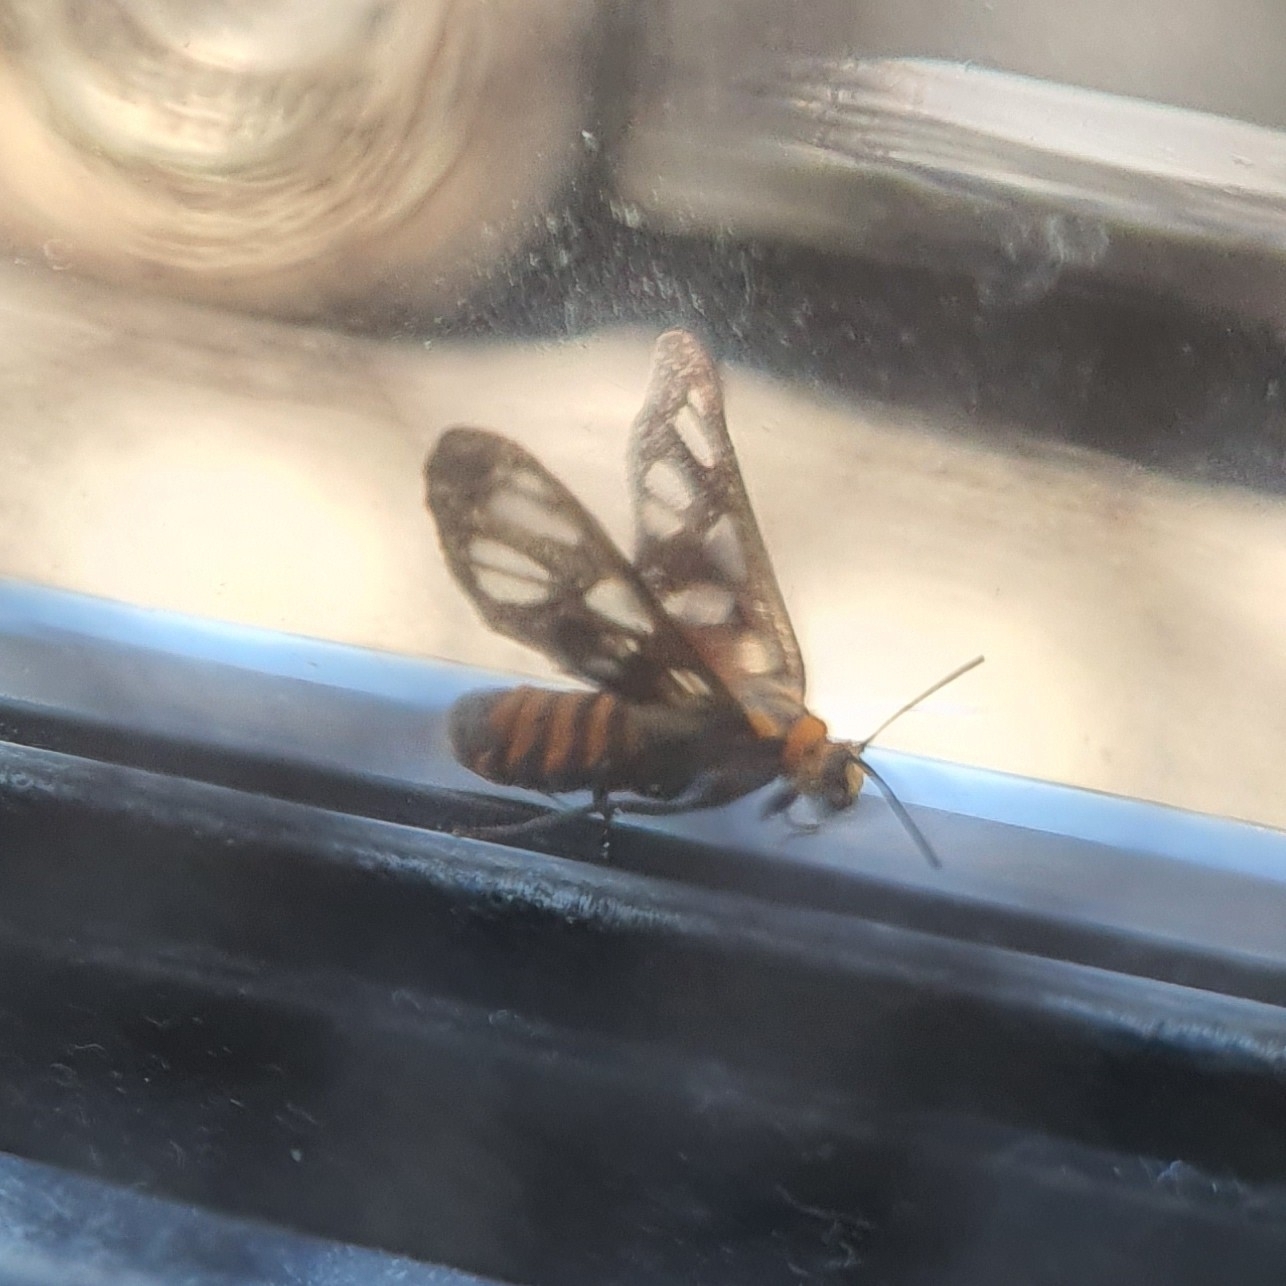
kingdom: Animalia
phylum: Arthropoda
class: Insecta
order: Lepidoptera
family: Erebidae
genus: Amata
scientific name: Amata huebneri
